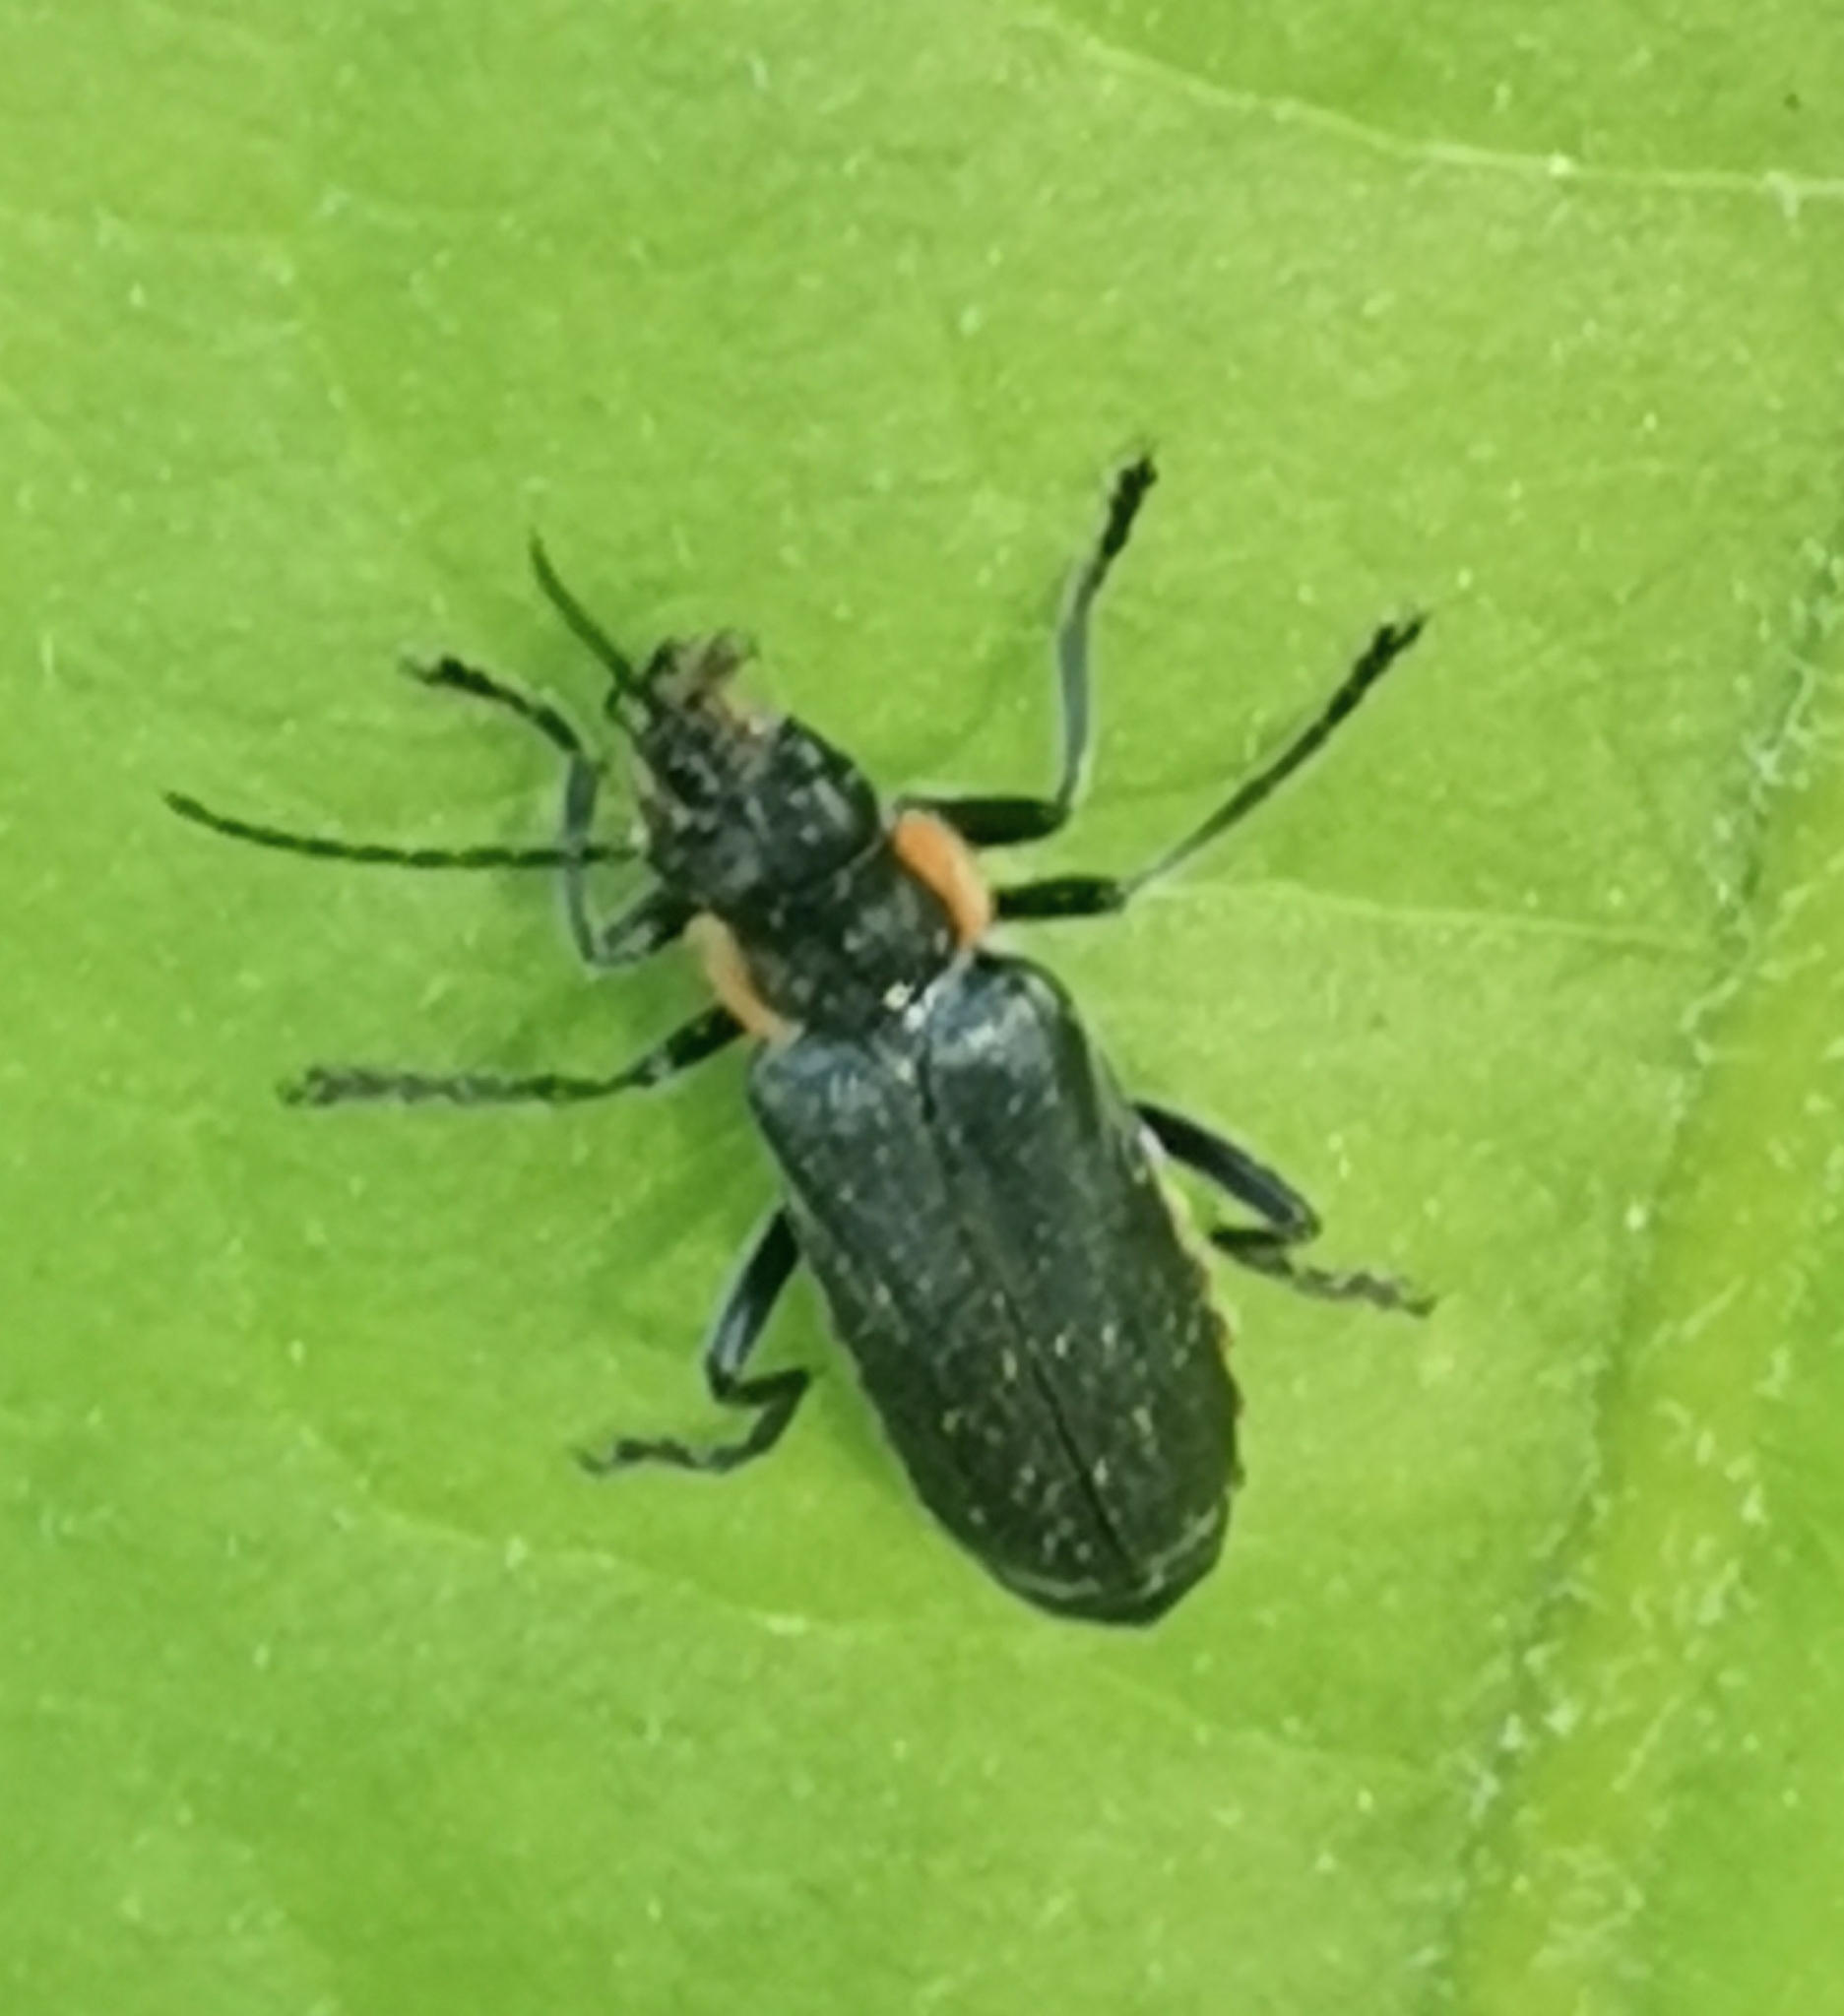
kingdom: Animalia
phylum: Arthropoda
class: Insecta
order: Coleoptera
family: Cantharidae
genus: Cantharis
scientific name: Cantharis obscura
